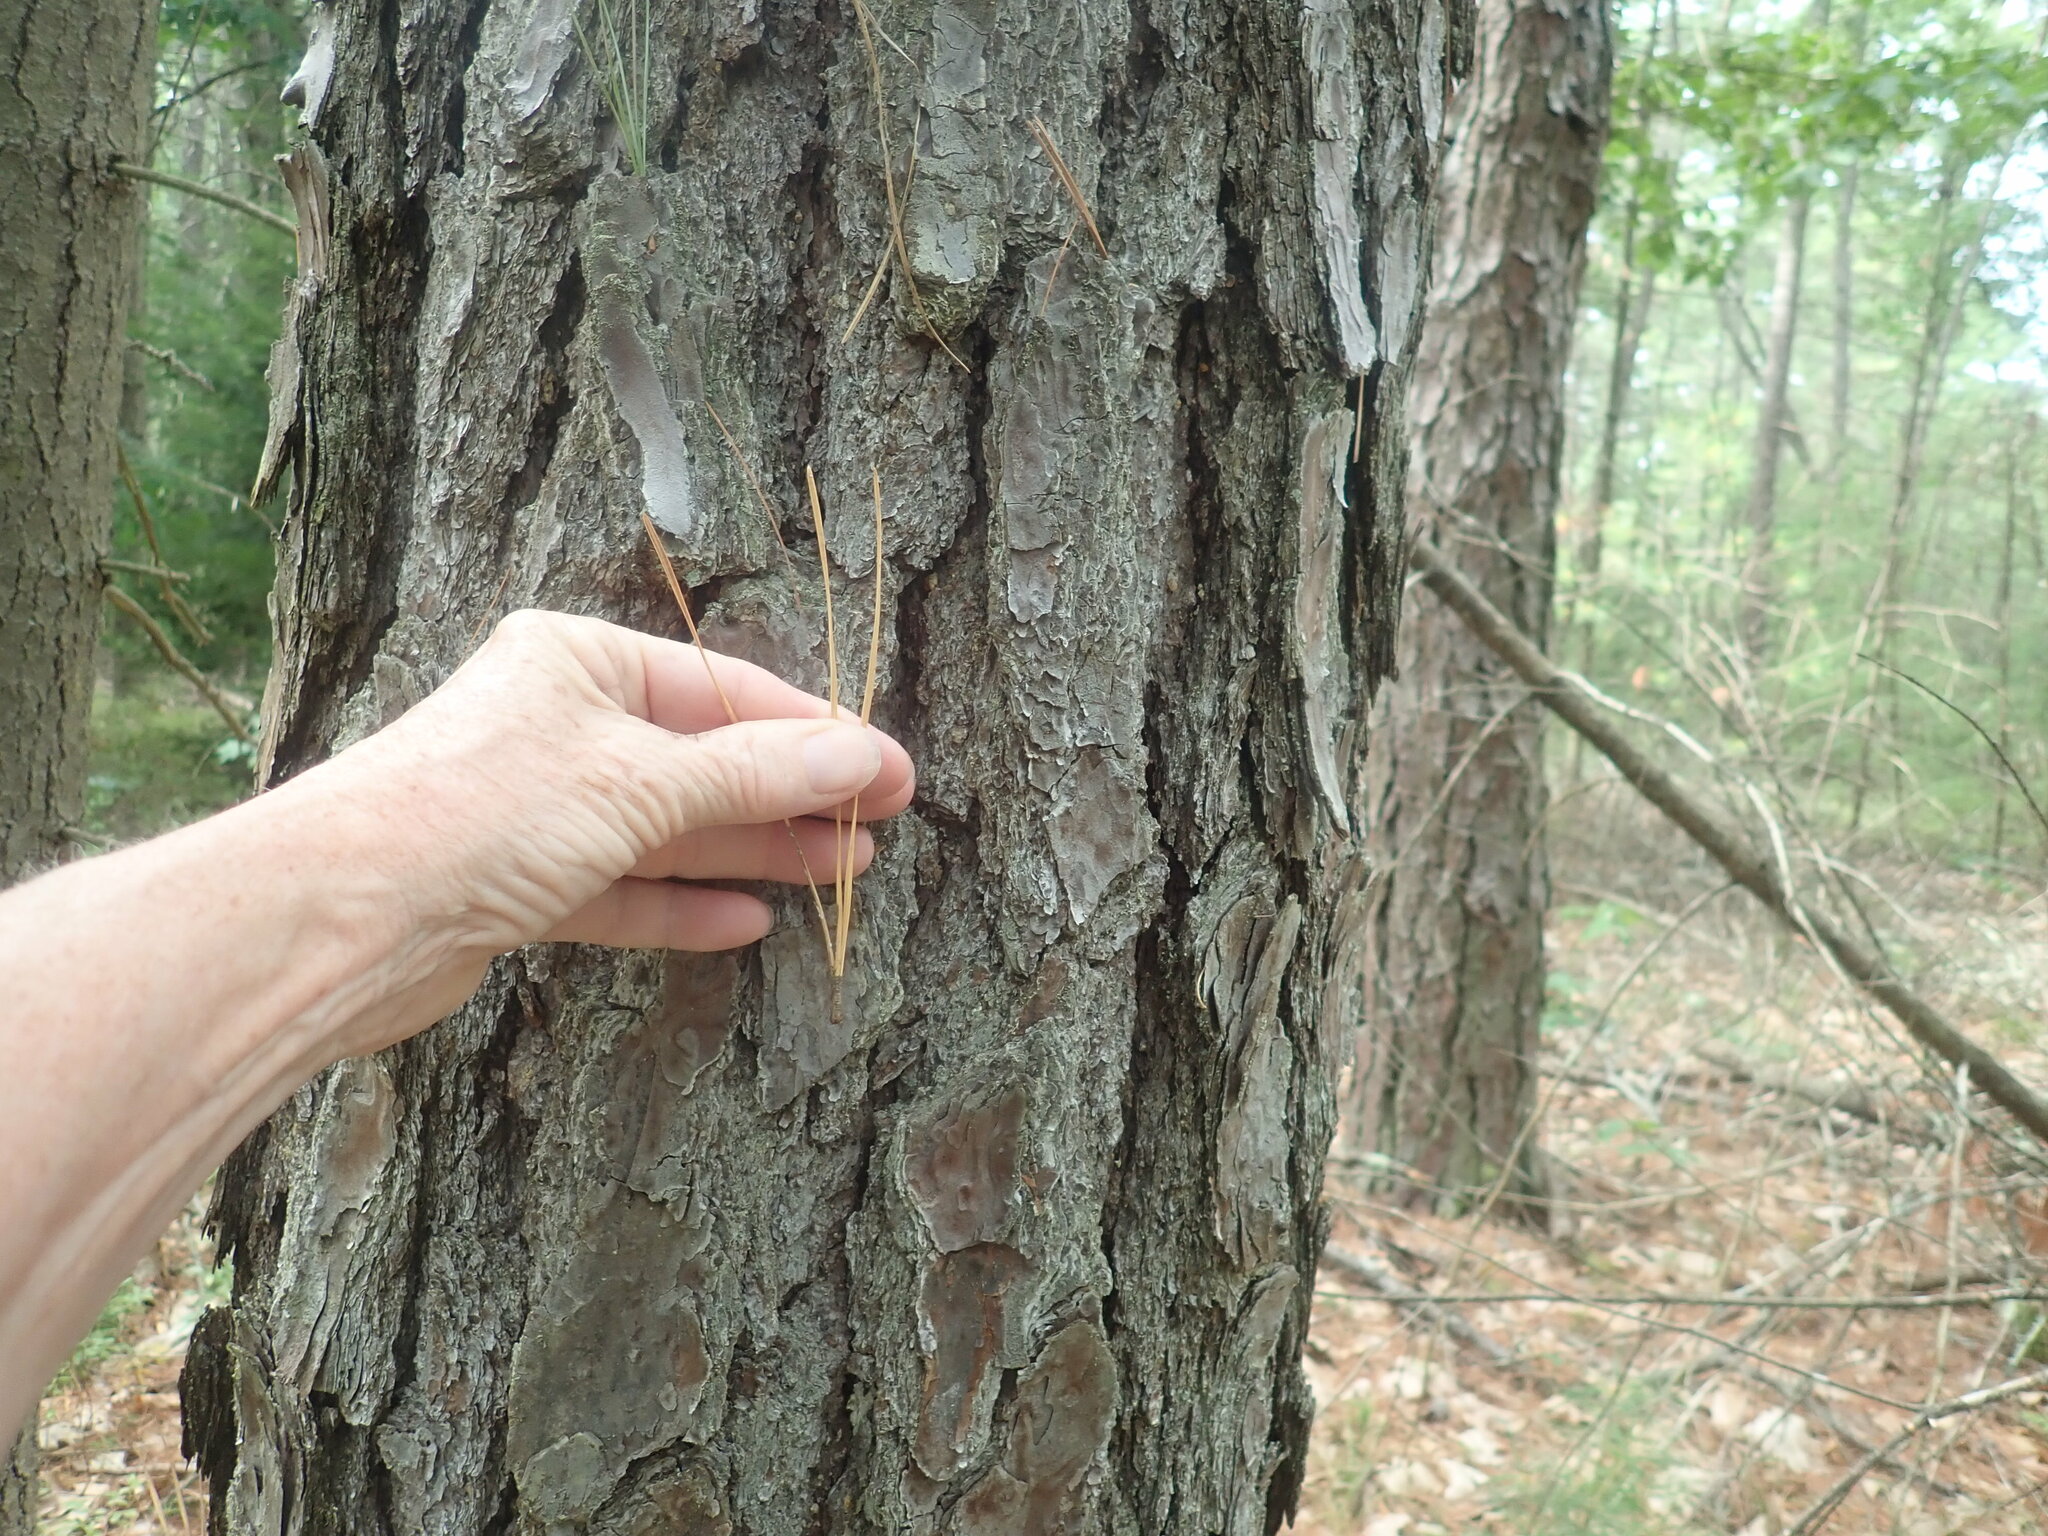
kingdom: Plantae
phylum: Tracheophyta
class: Pinopsida
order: Pinales
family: Pinaceae
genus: Pinus
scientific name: Pinus rigida
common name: Pitch pine
